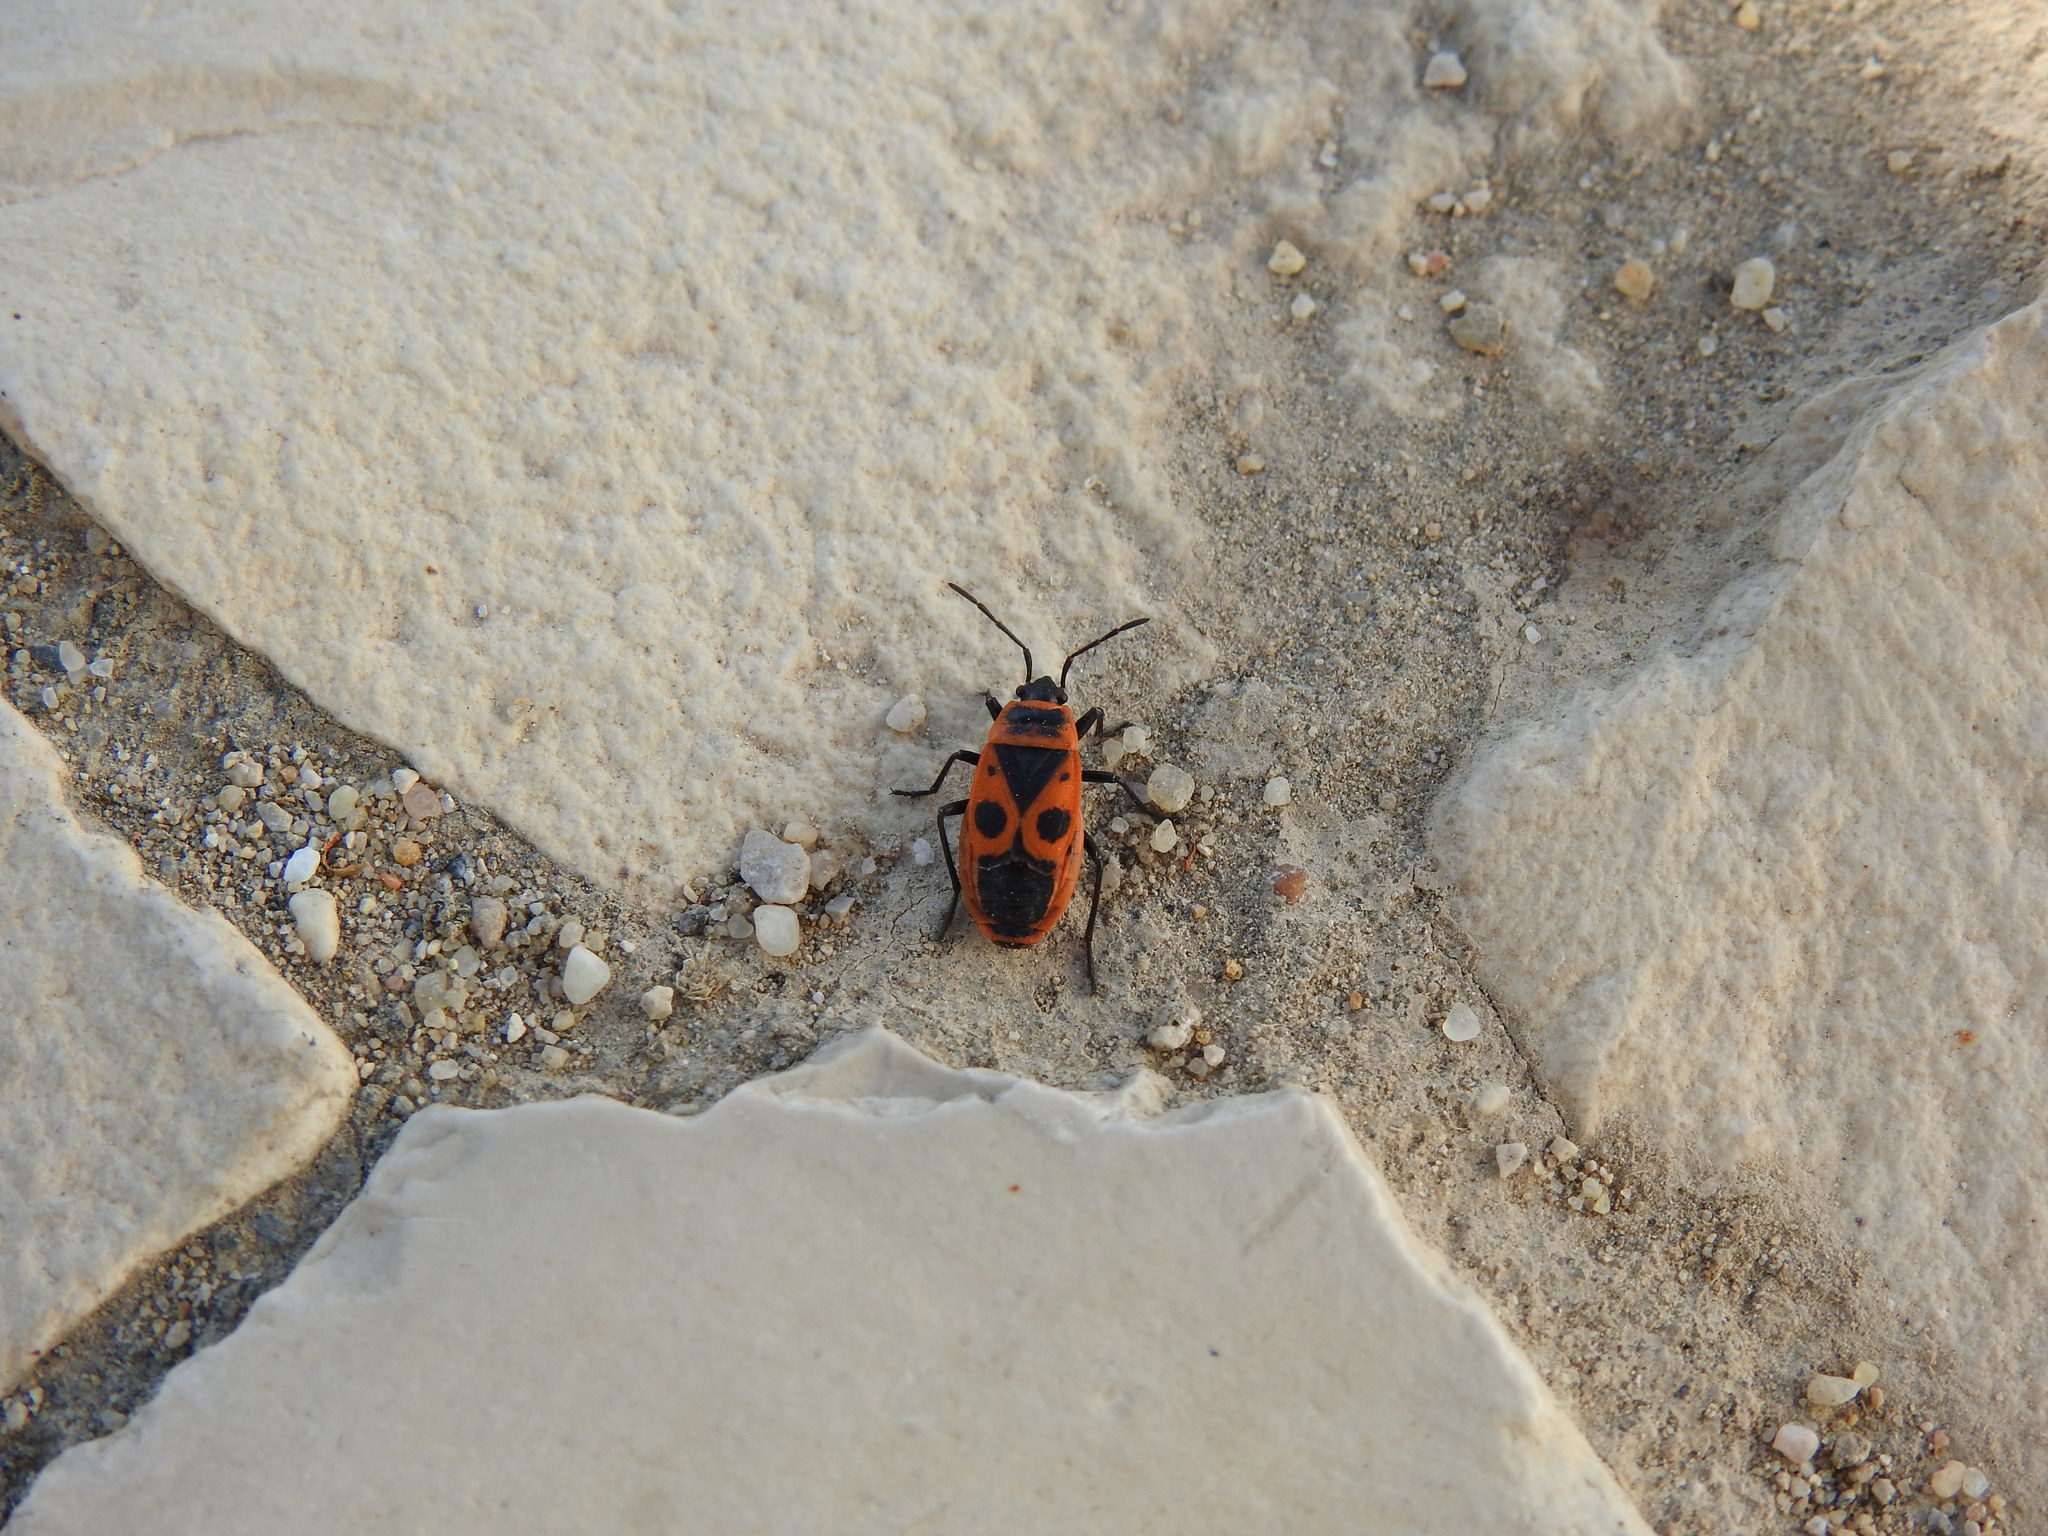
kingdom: Animalia
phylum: Arthropoda
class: Insecta
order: Hemiptera
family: Pyrrhocoridae
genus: Pyrrhocoris
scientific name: Pyrrhocoris apterus
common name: Firebug
